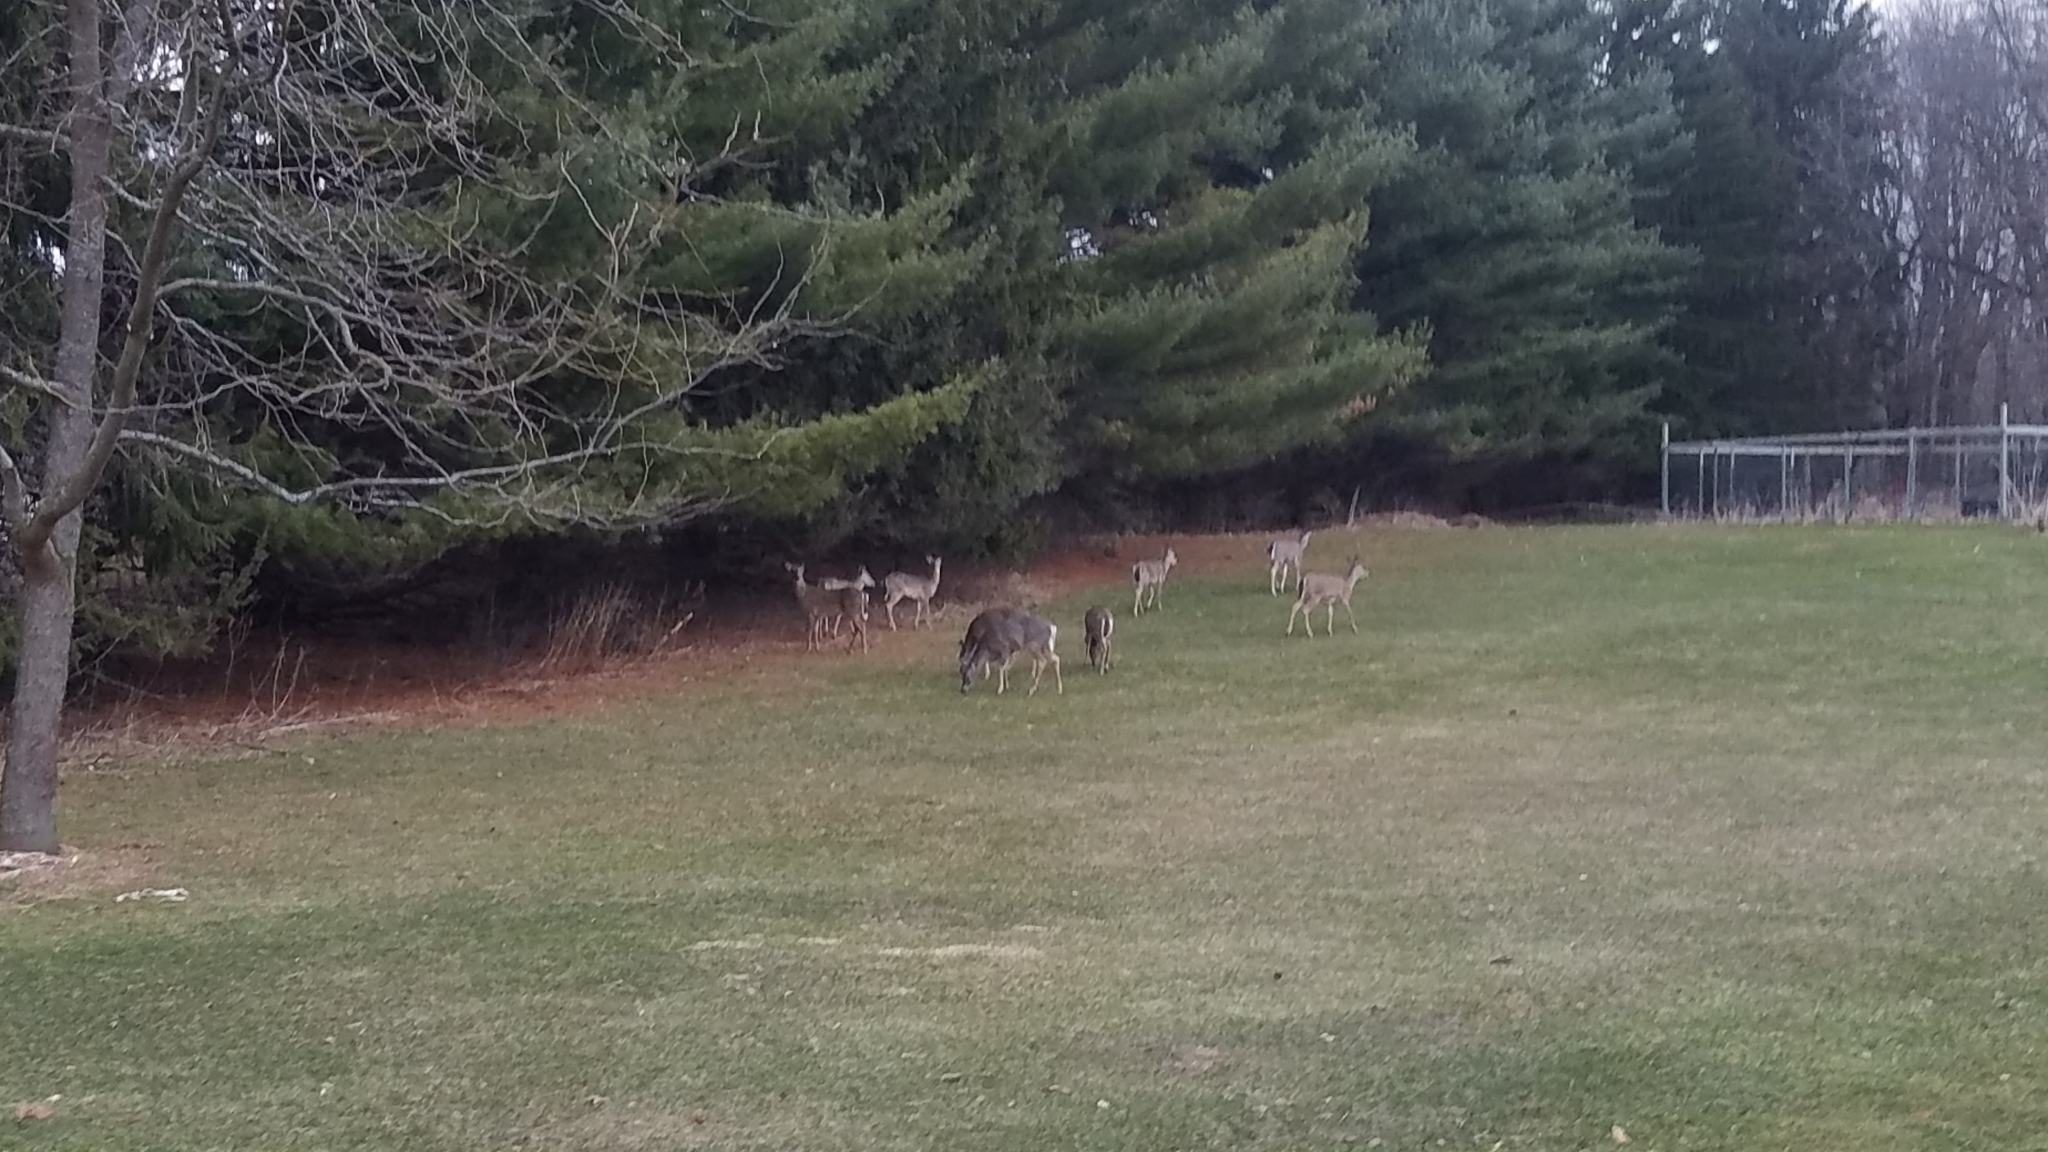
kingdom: Animalia
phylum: Chordata
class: Mammalia
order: Artiodactyla
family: Cervidae
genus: Odocoileus
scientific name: Odocoileus virginianus
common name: White-tailed deer
